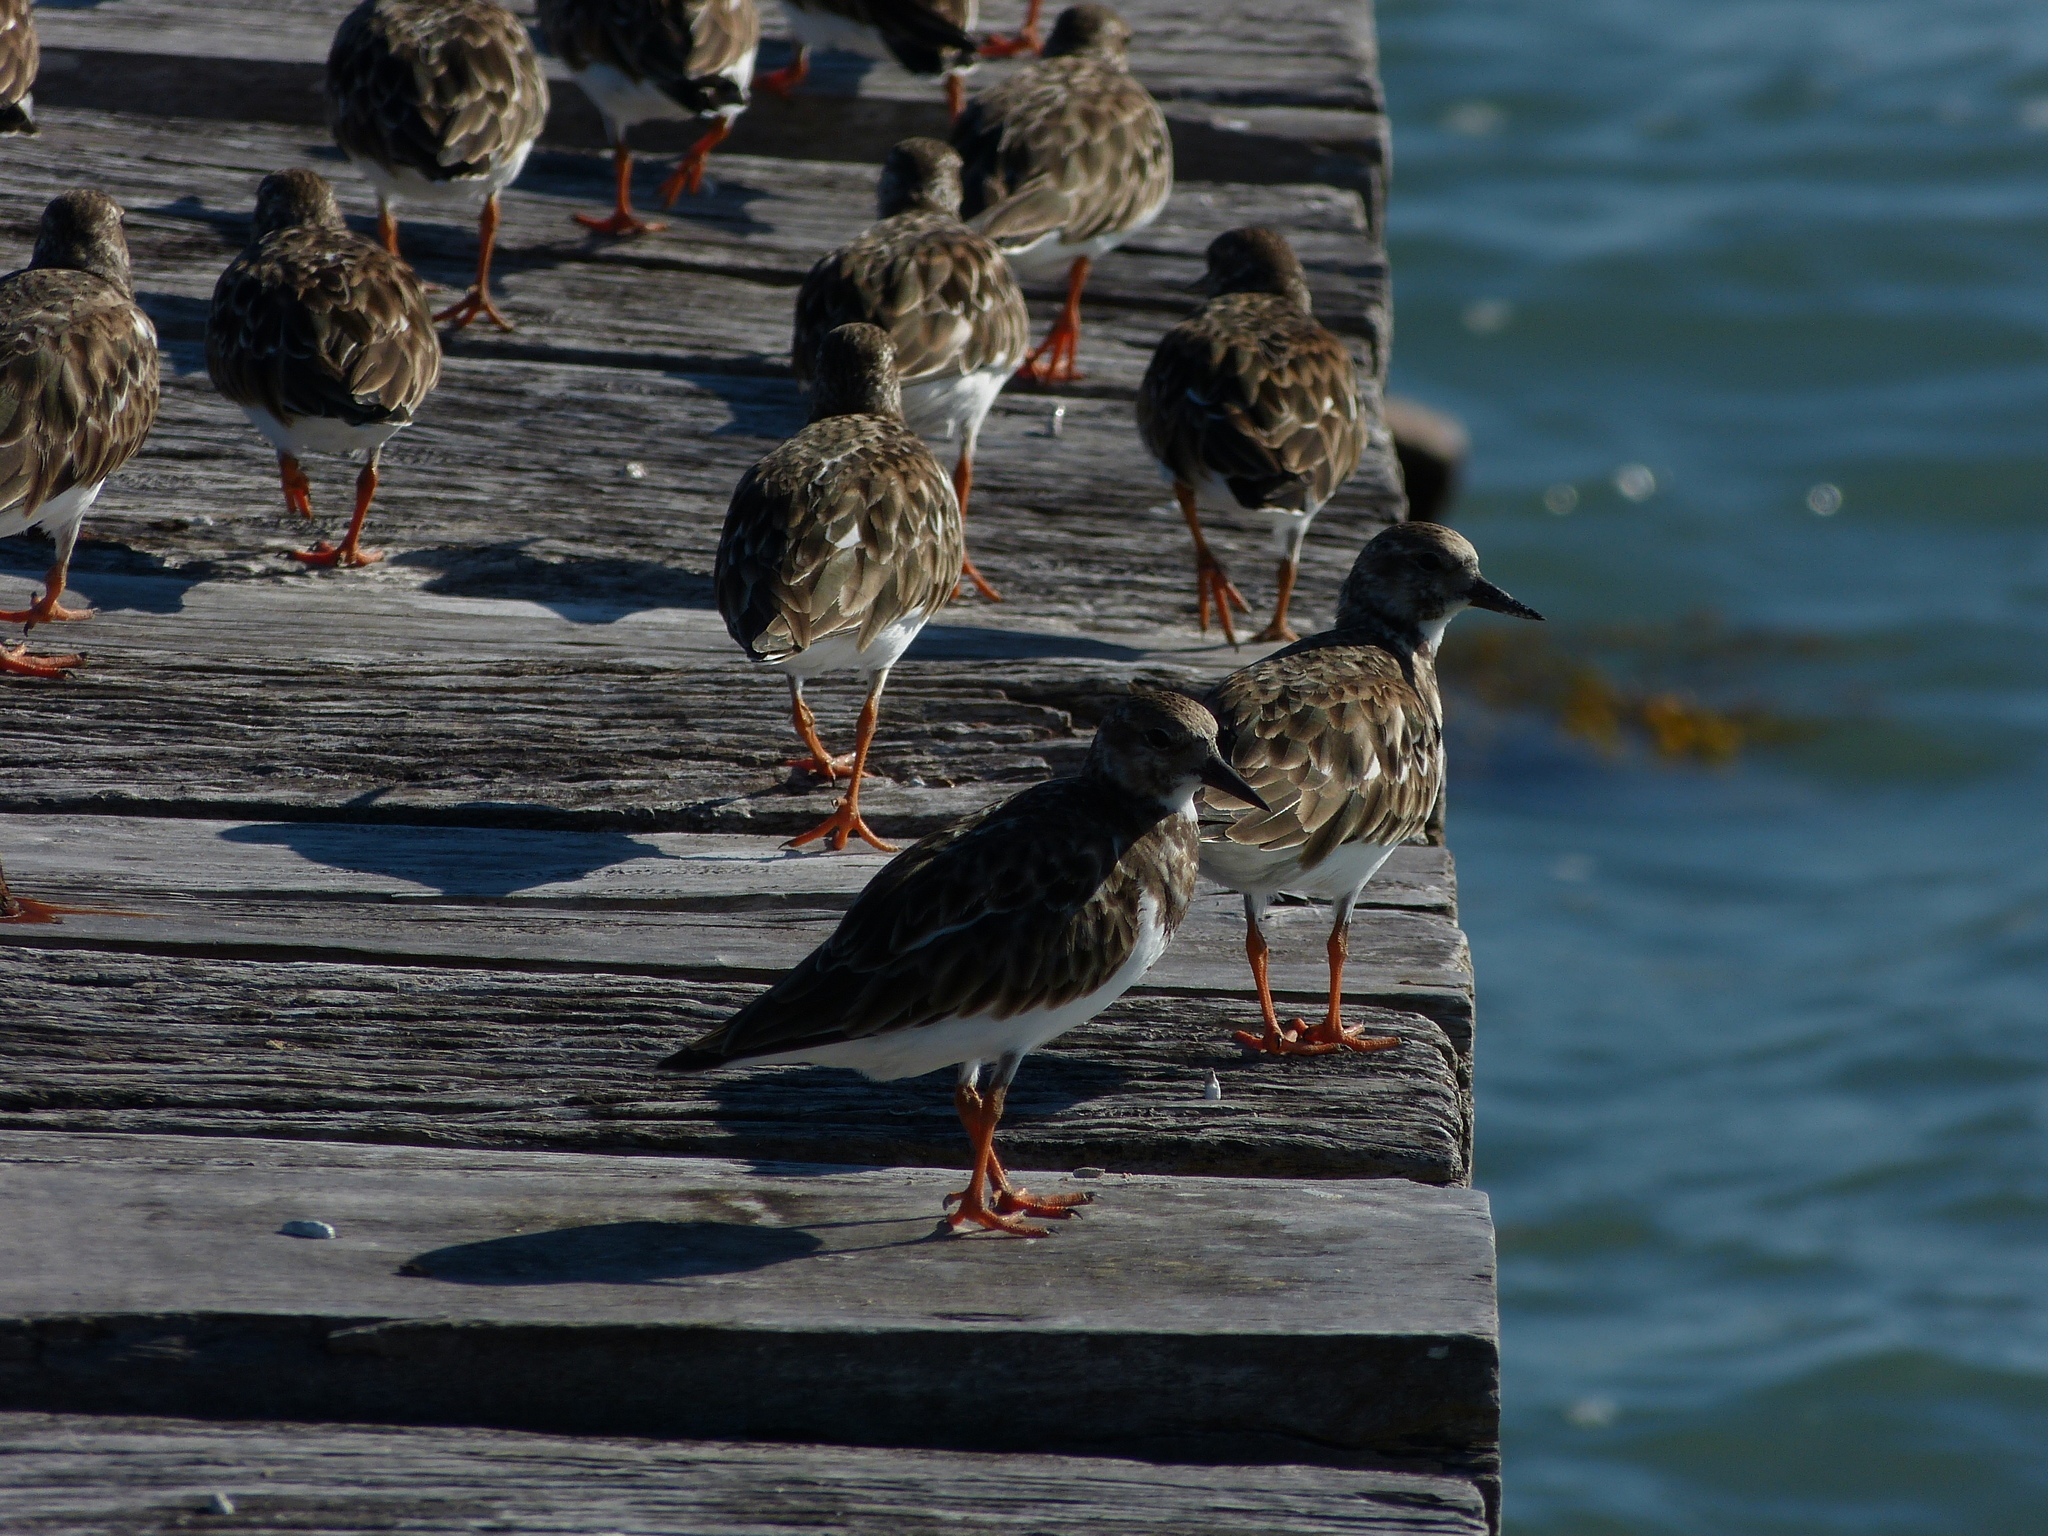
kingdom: Animalia
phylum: Chordata
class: Aves
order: Charadriiformes
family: Scolopacidae
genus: Arenaria
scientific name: Arenaria interpres
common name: Ruddy turnstone
